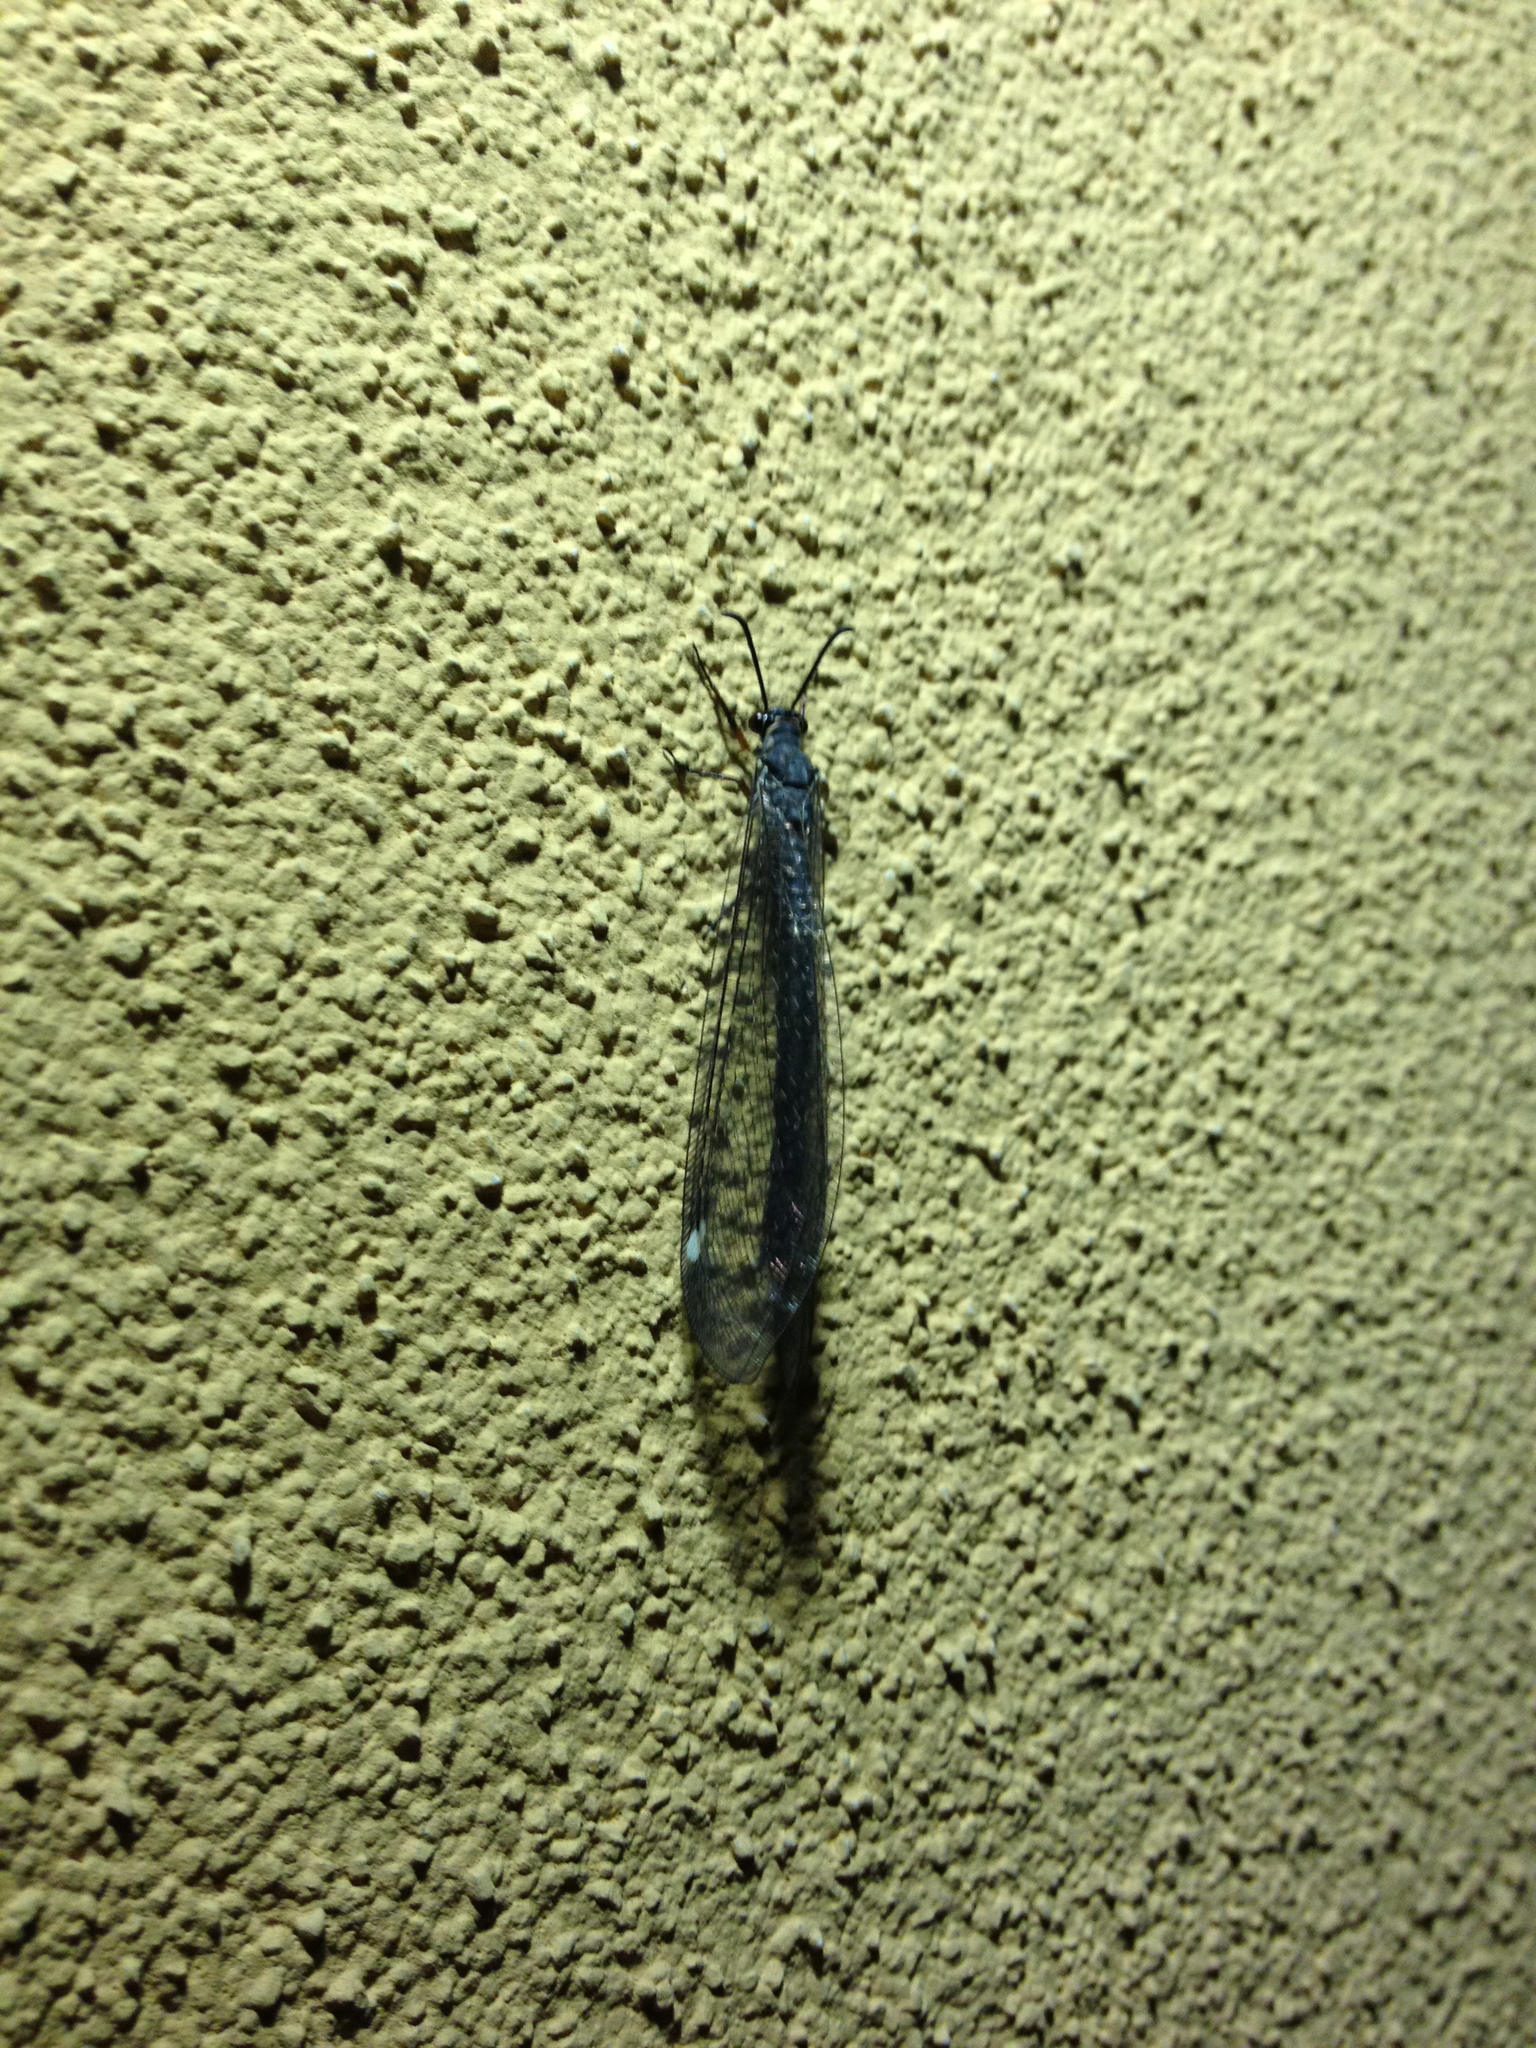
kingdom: Animalia
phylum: Arthropoda
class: Insecta
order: Neuroptera
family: Myrmeleontidae
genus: Myrmeleon
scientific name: Myrmeleon formicarius
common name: Ant-lion
